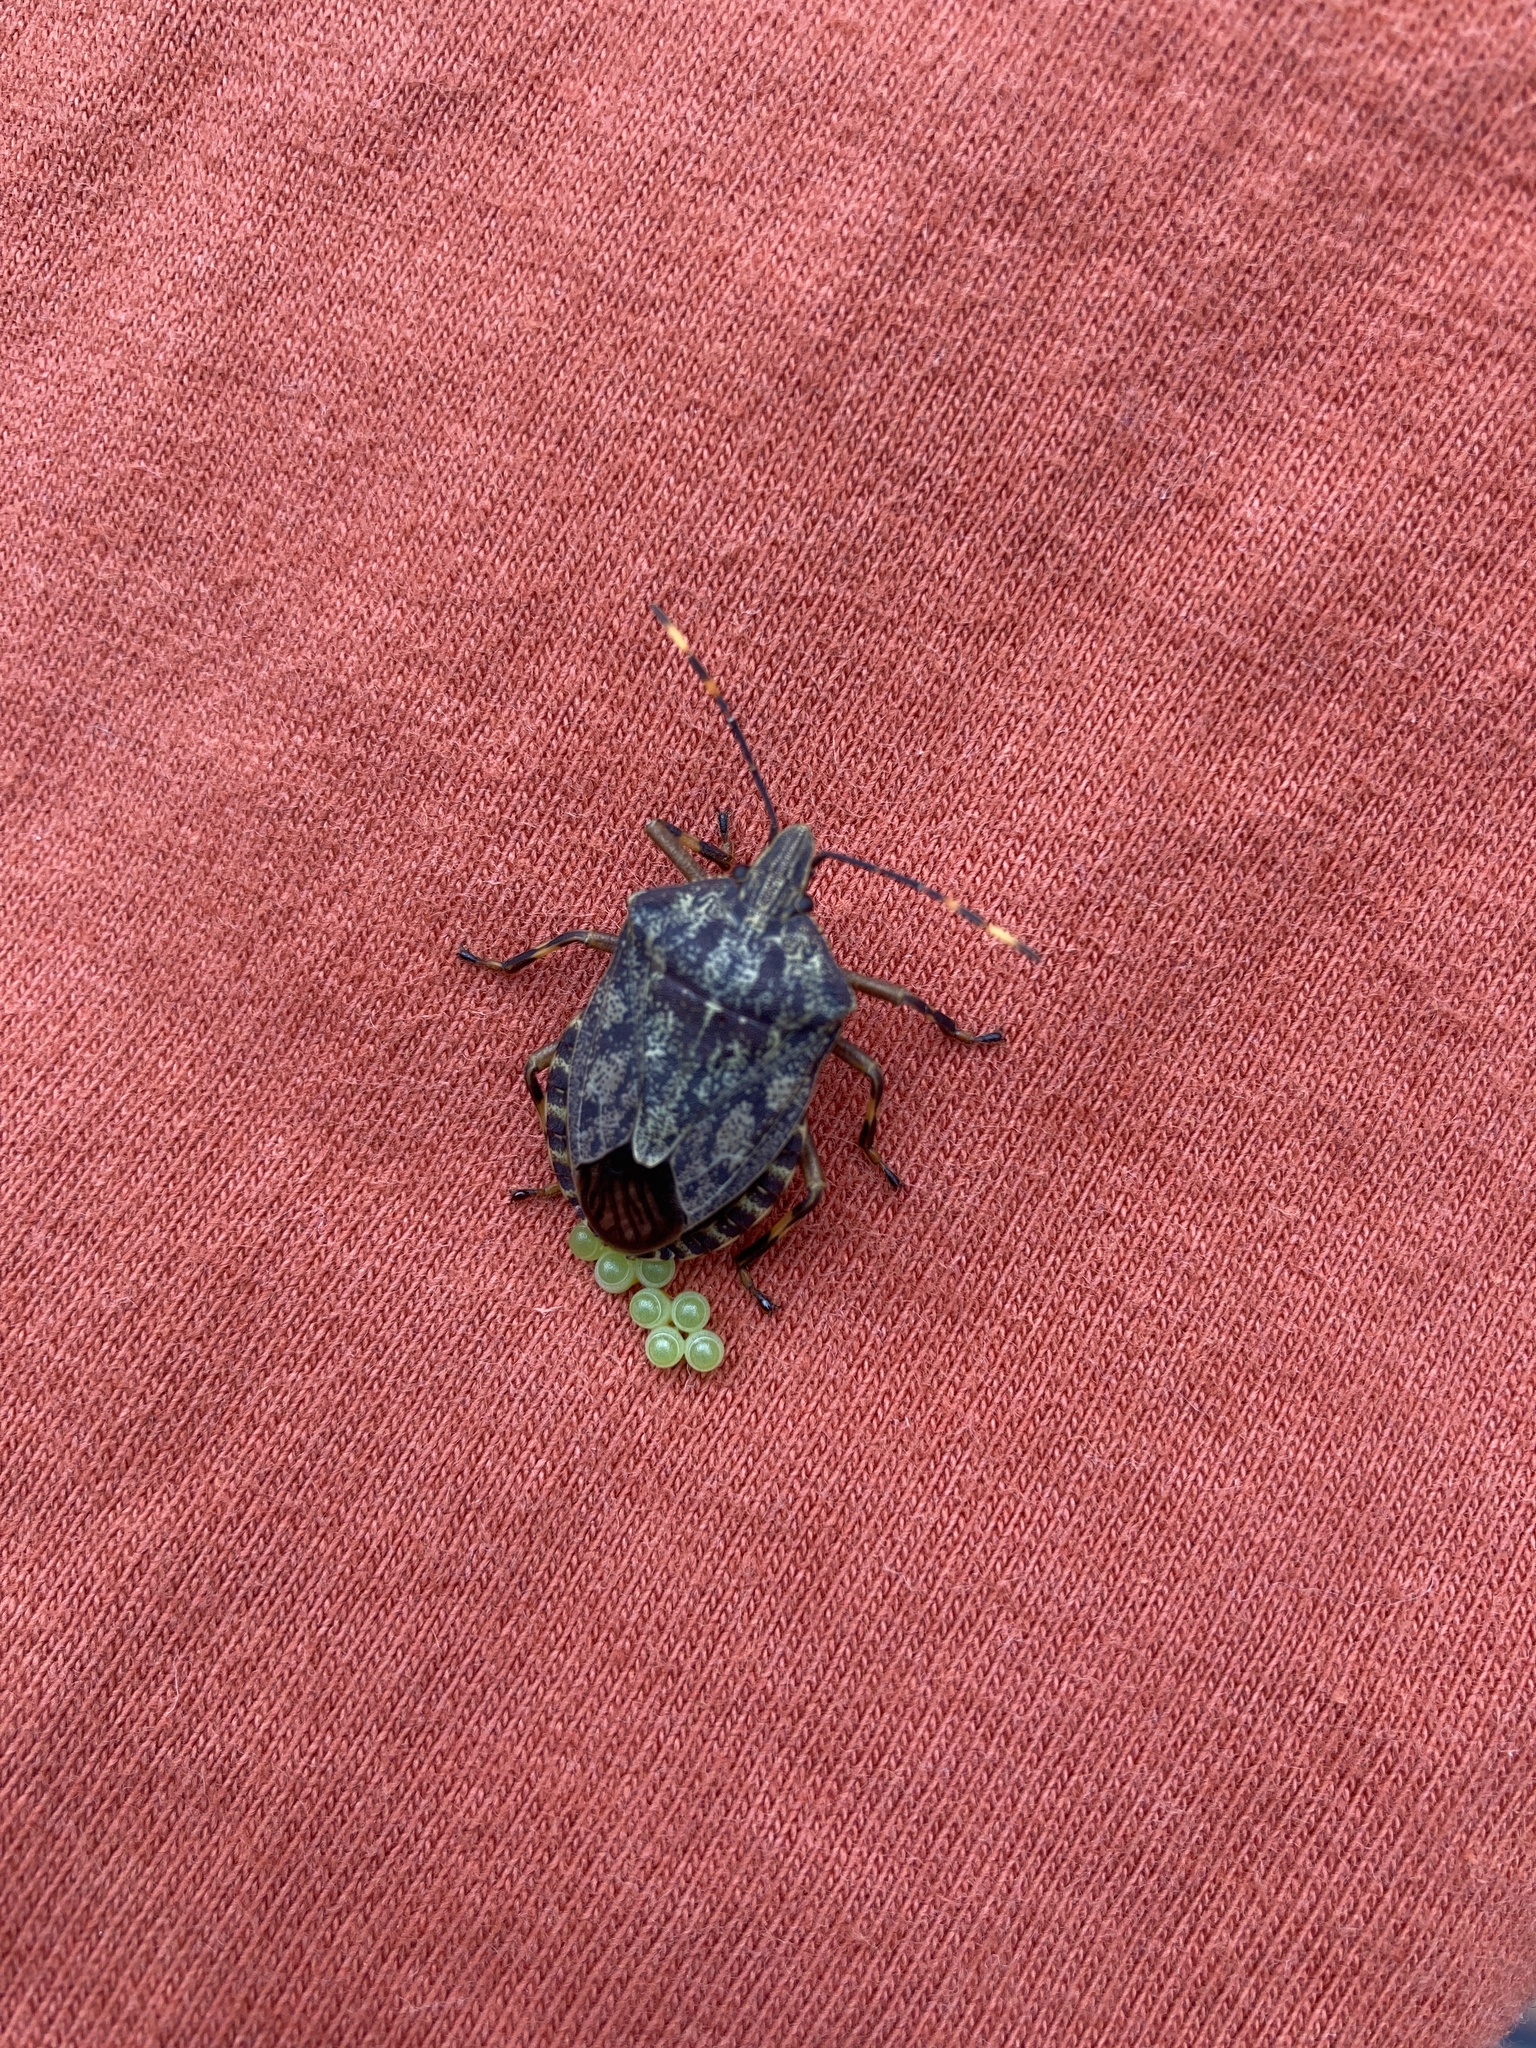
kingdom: Animalia
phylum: Arthropoda
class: Insecta
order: Hemiptera
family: Pentatomidae
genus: Coenomorpha
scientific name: Coenomorpha nervosa
